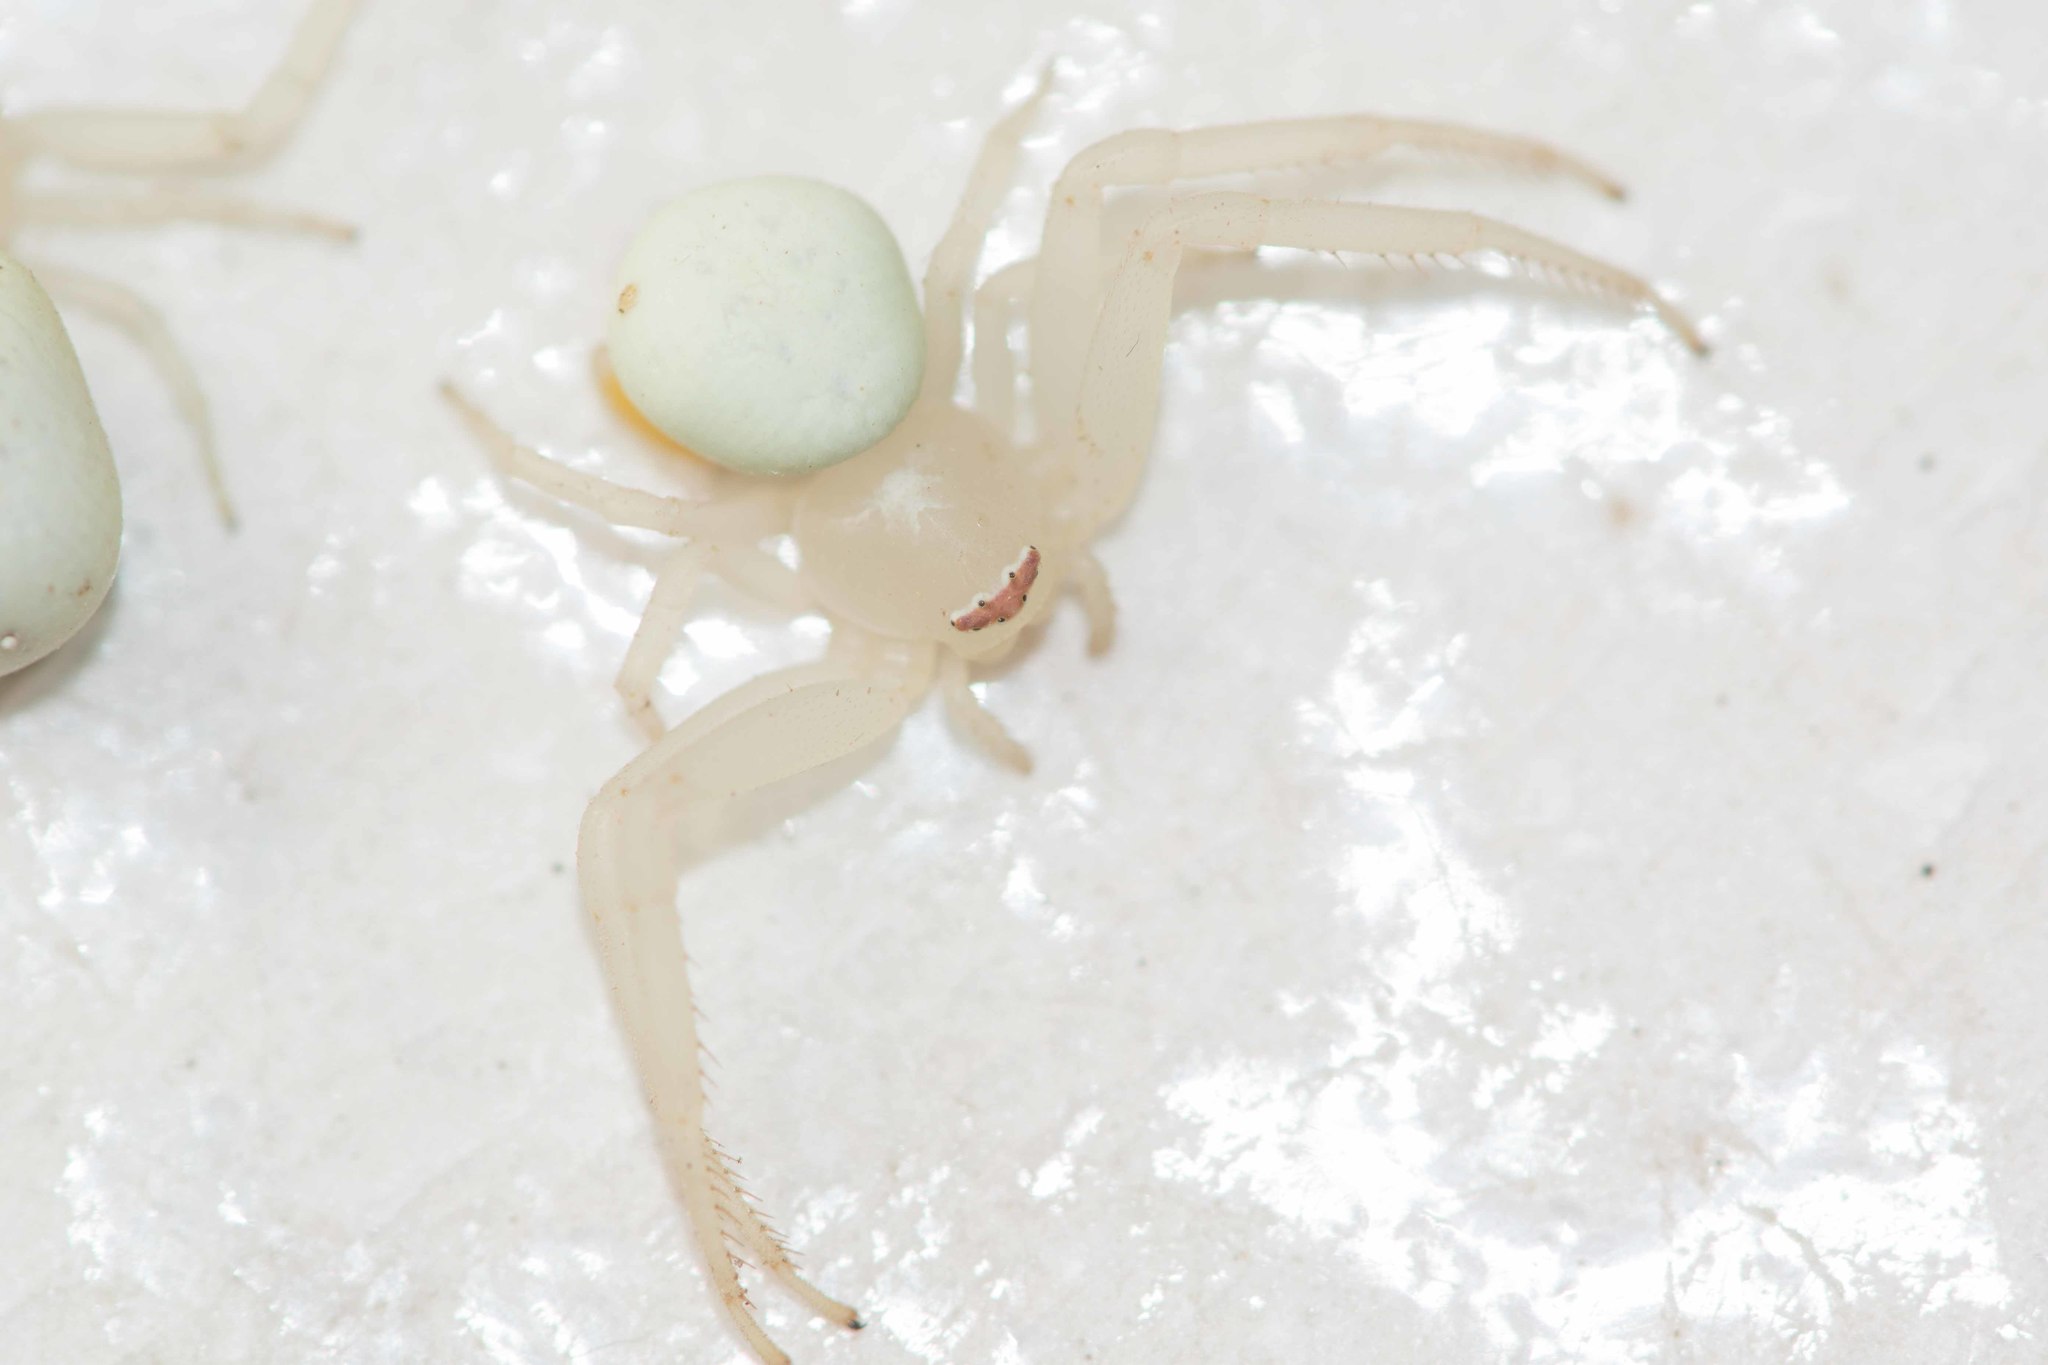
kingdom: Animalia
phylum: Arthropoda
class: Arachnida
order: Araneae
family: Thomisidae
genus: Misumena
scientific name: Misumena vatia
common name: Goldenrod crab spider
